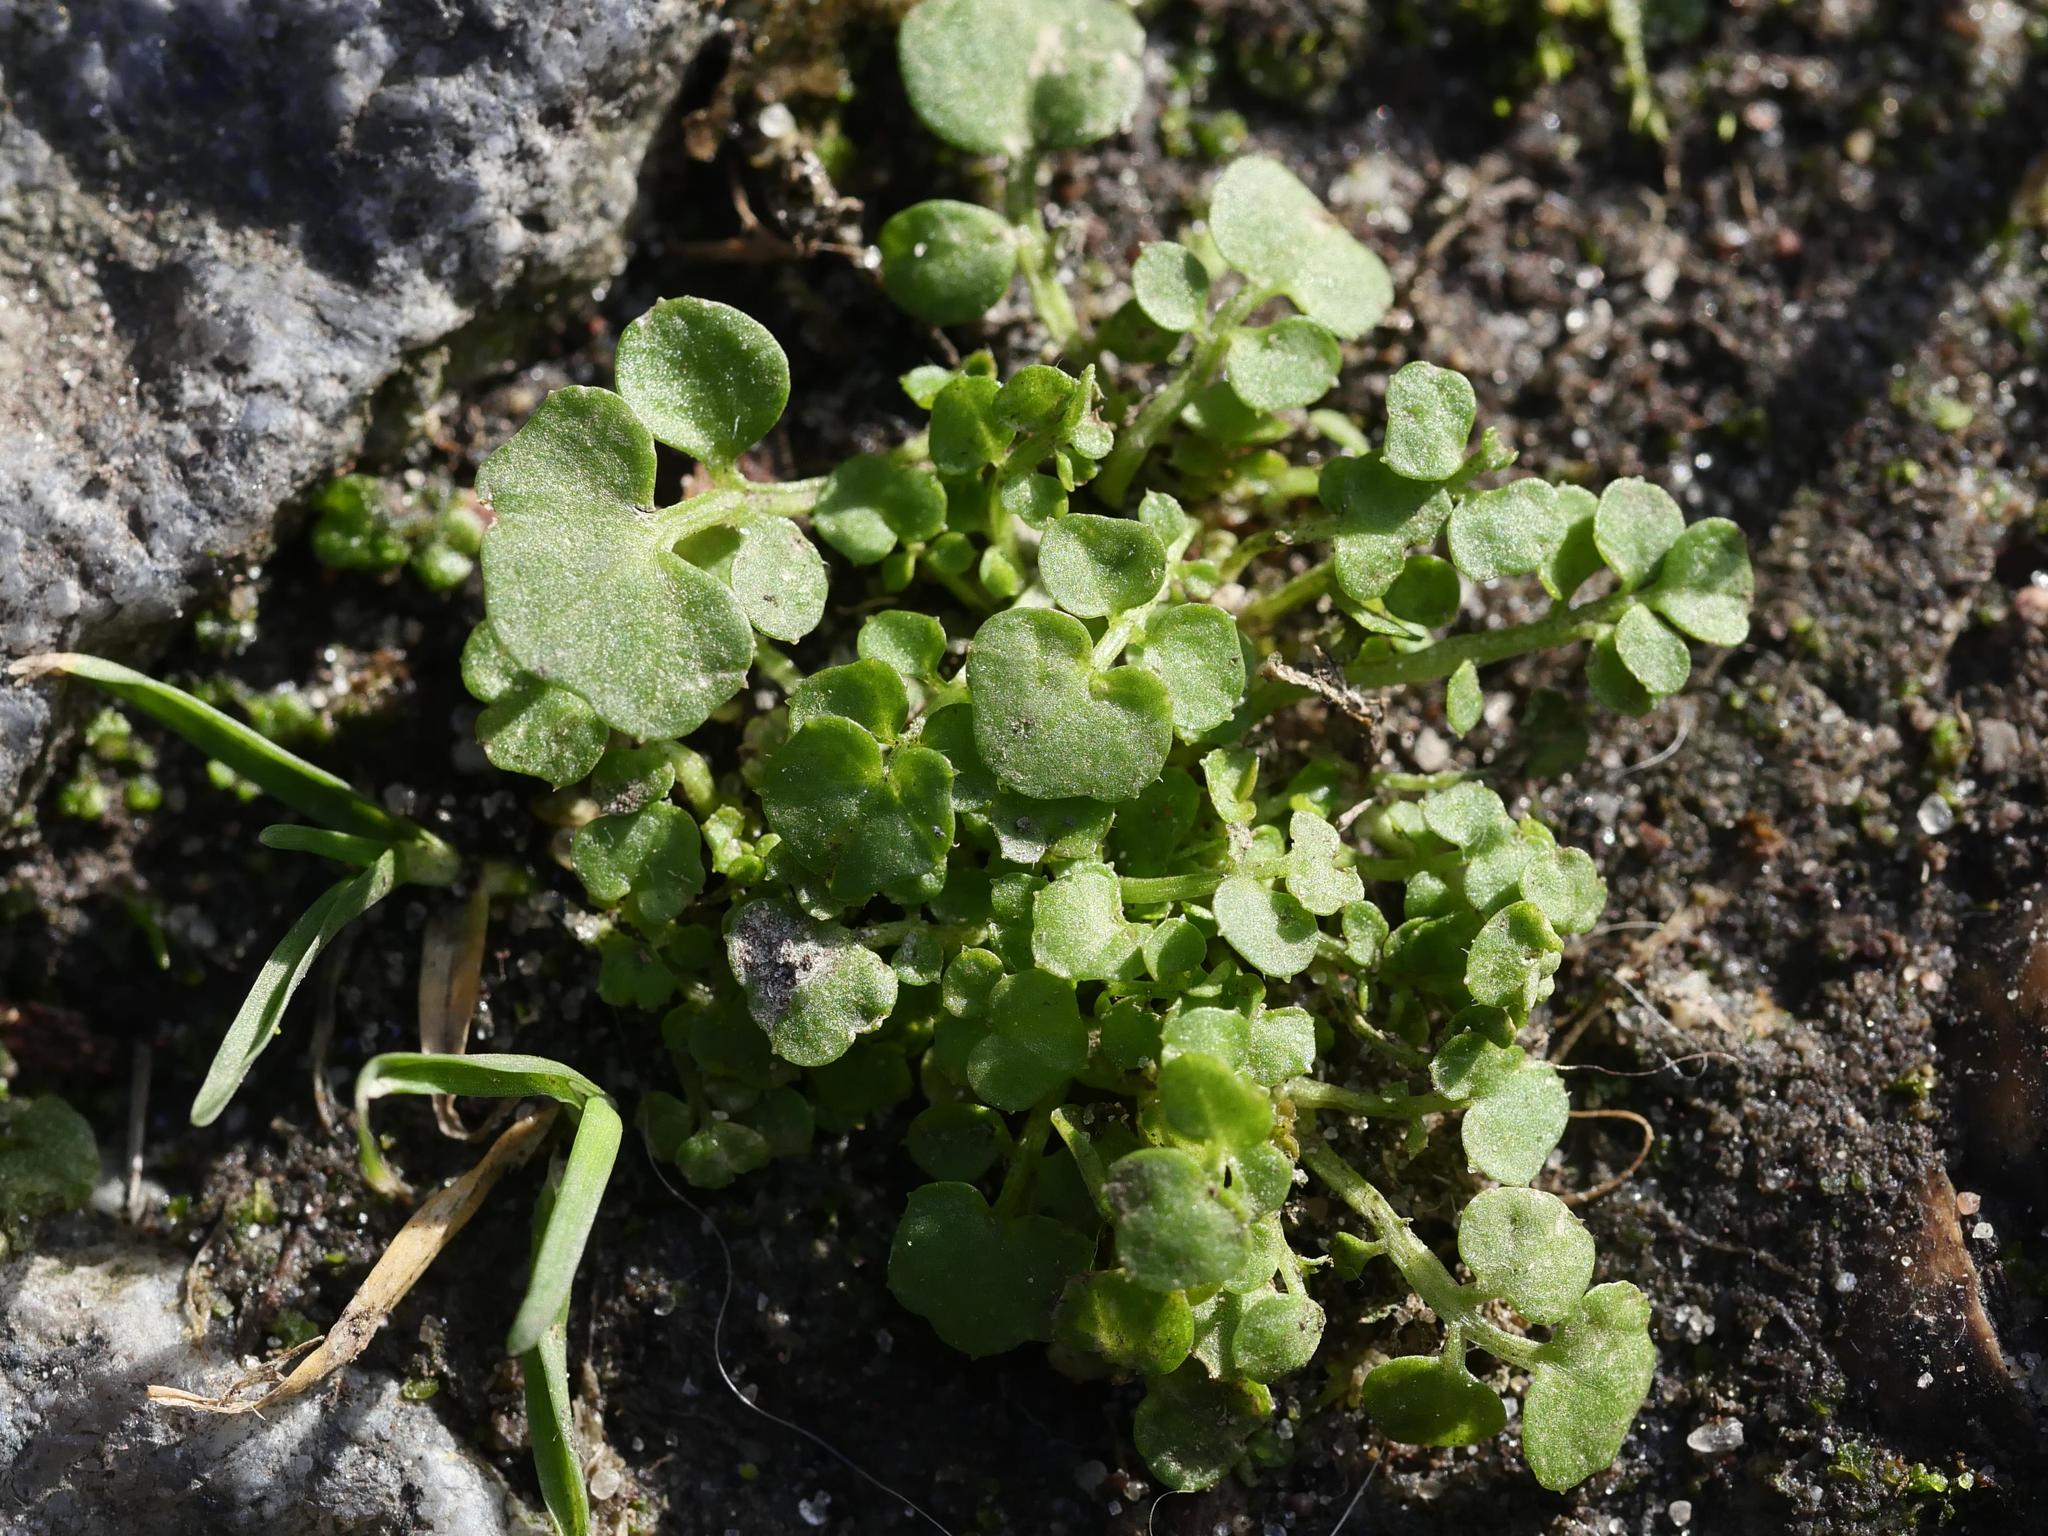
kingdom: Plantae
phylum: Tracheophyta
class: Magnoliopsida
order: Brassicales
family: Brassicaceae
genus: Cardamine
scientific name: Cardamine hirsuta
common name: Hairy bittercress
